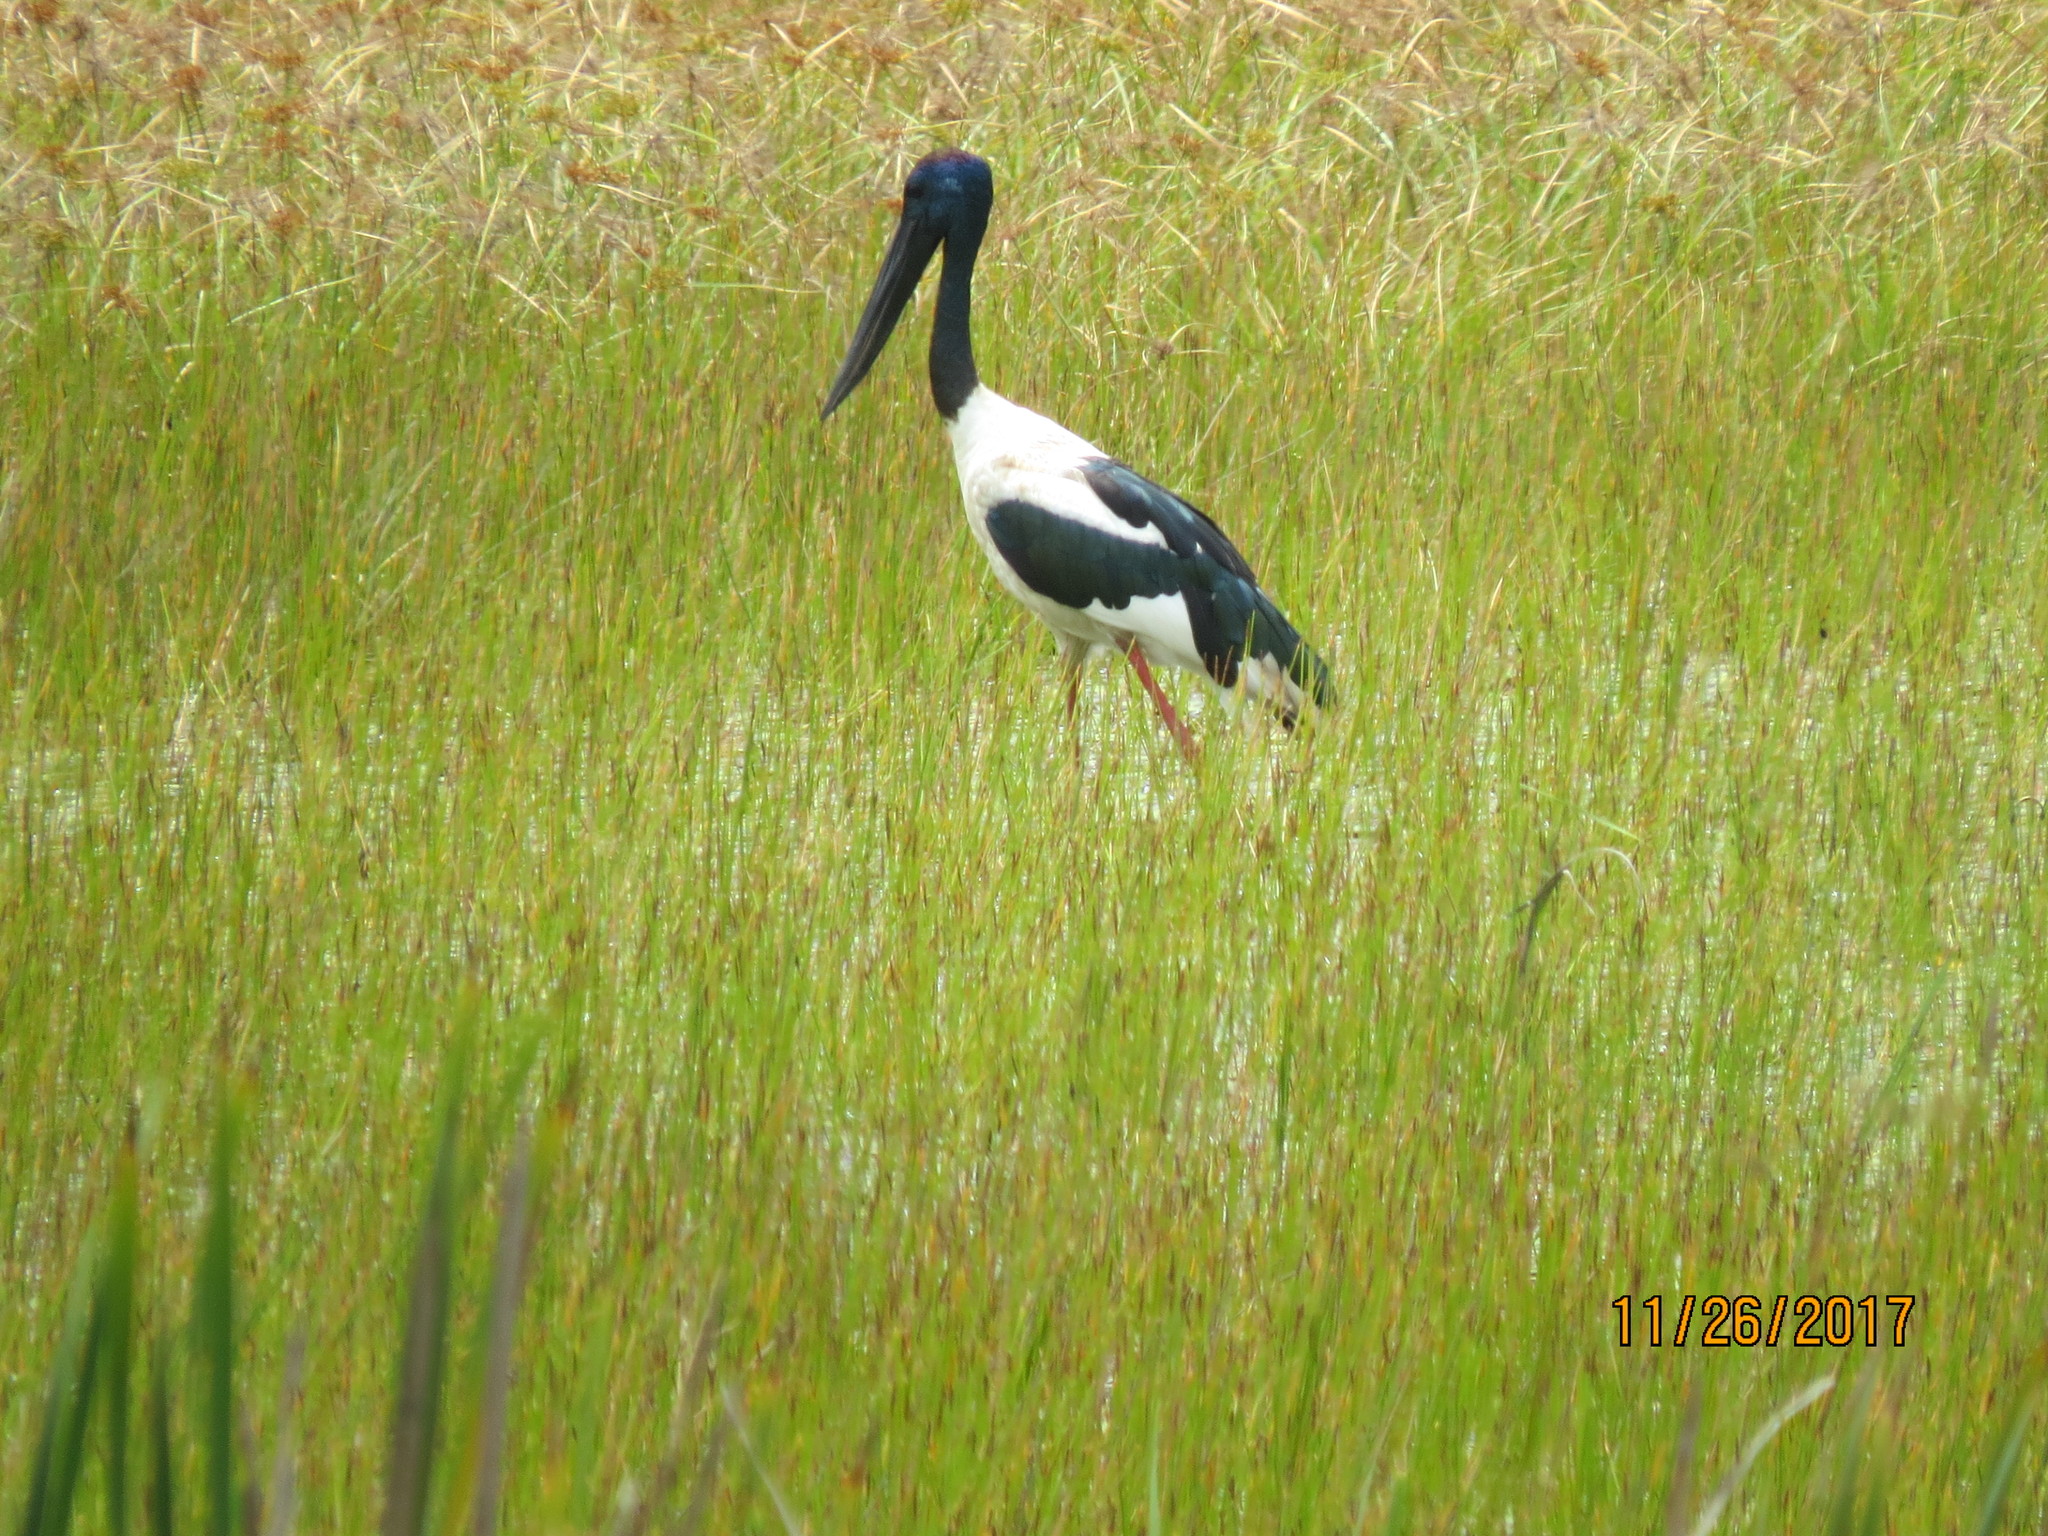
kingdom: Animalia
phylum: Chordata
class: Aves
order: Ciconiiformes
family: Ciconiidae
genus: Ephippiorhynchus
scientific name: Ephippiorhynchus asiaticus
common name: Black-necked stork
